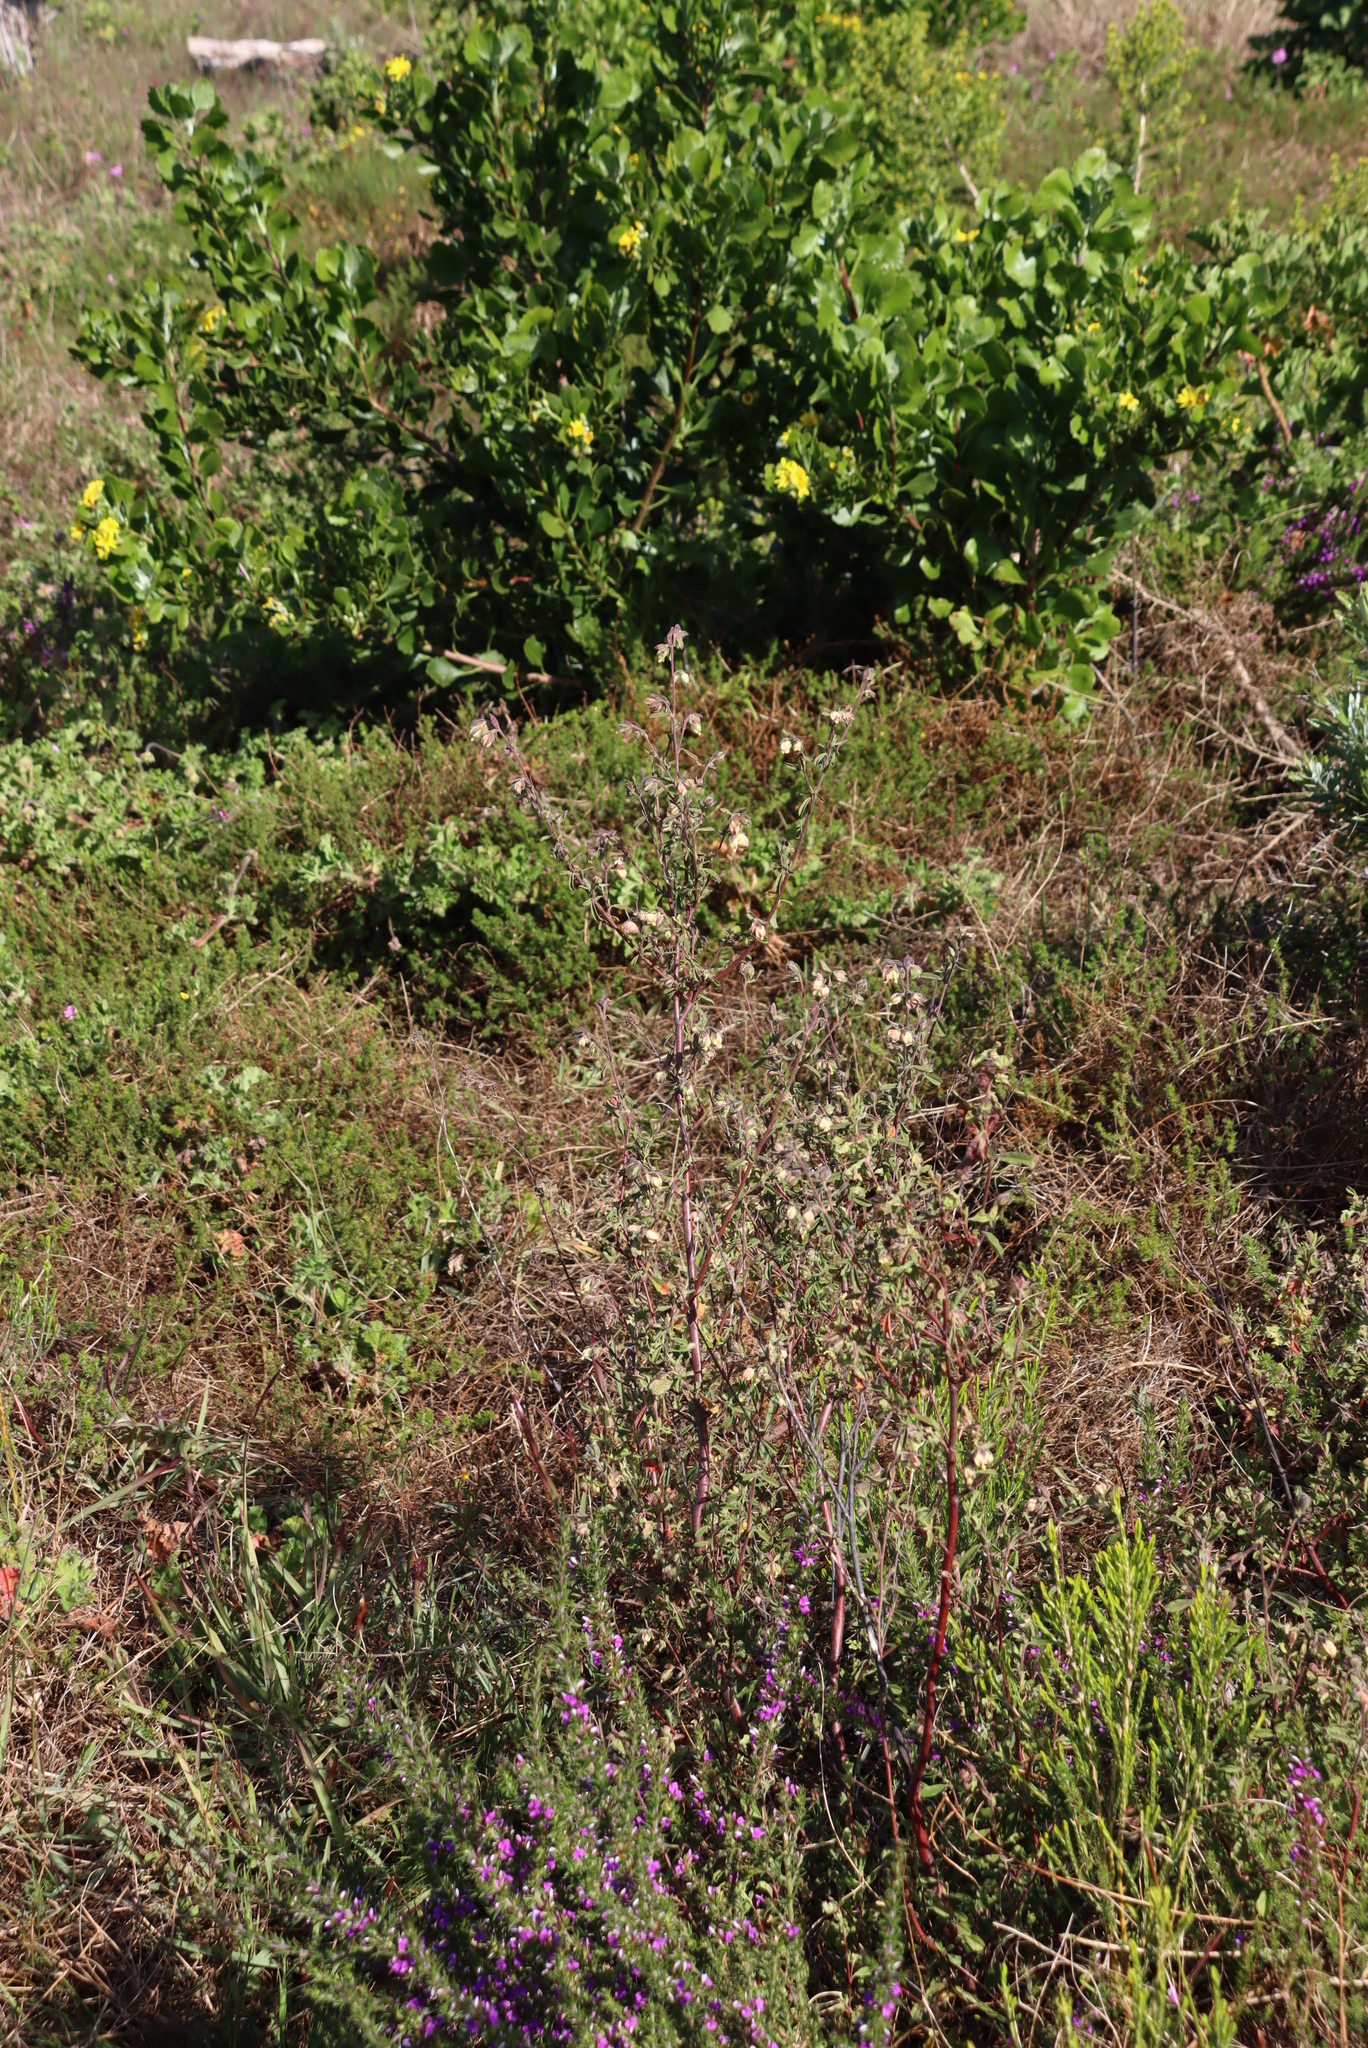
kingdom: Plantae
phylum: Tracheophyta
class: Magnoliopsida
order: Malvales
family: Malvaceae
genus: Hermannia
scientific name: Hermannia hyssopifolia
